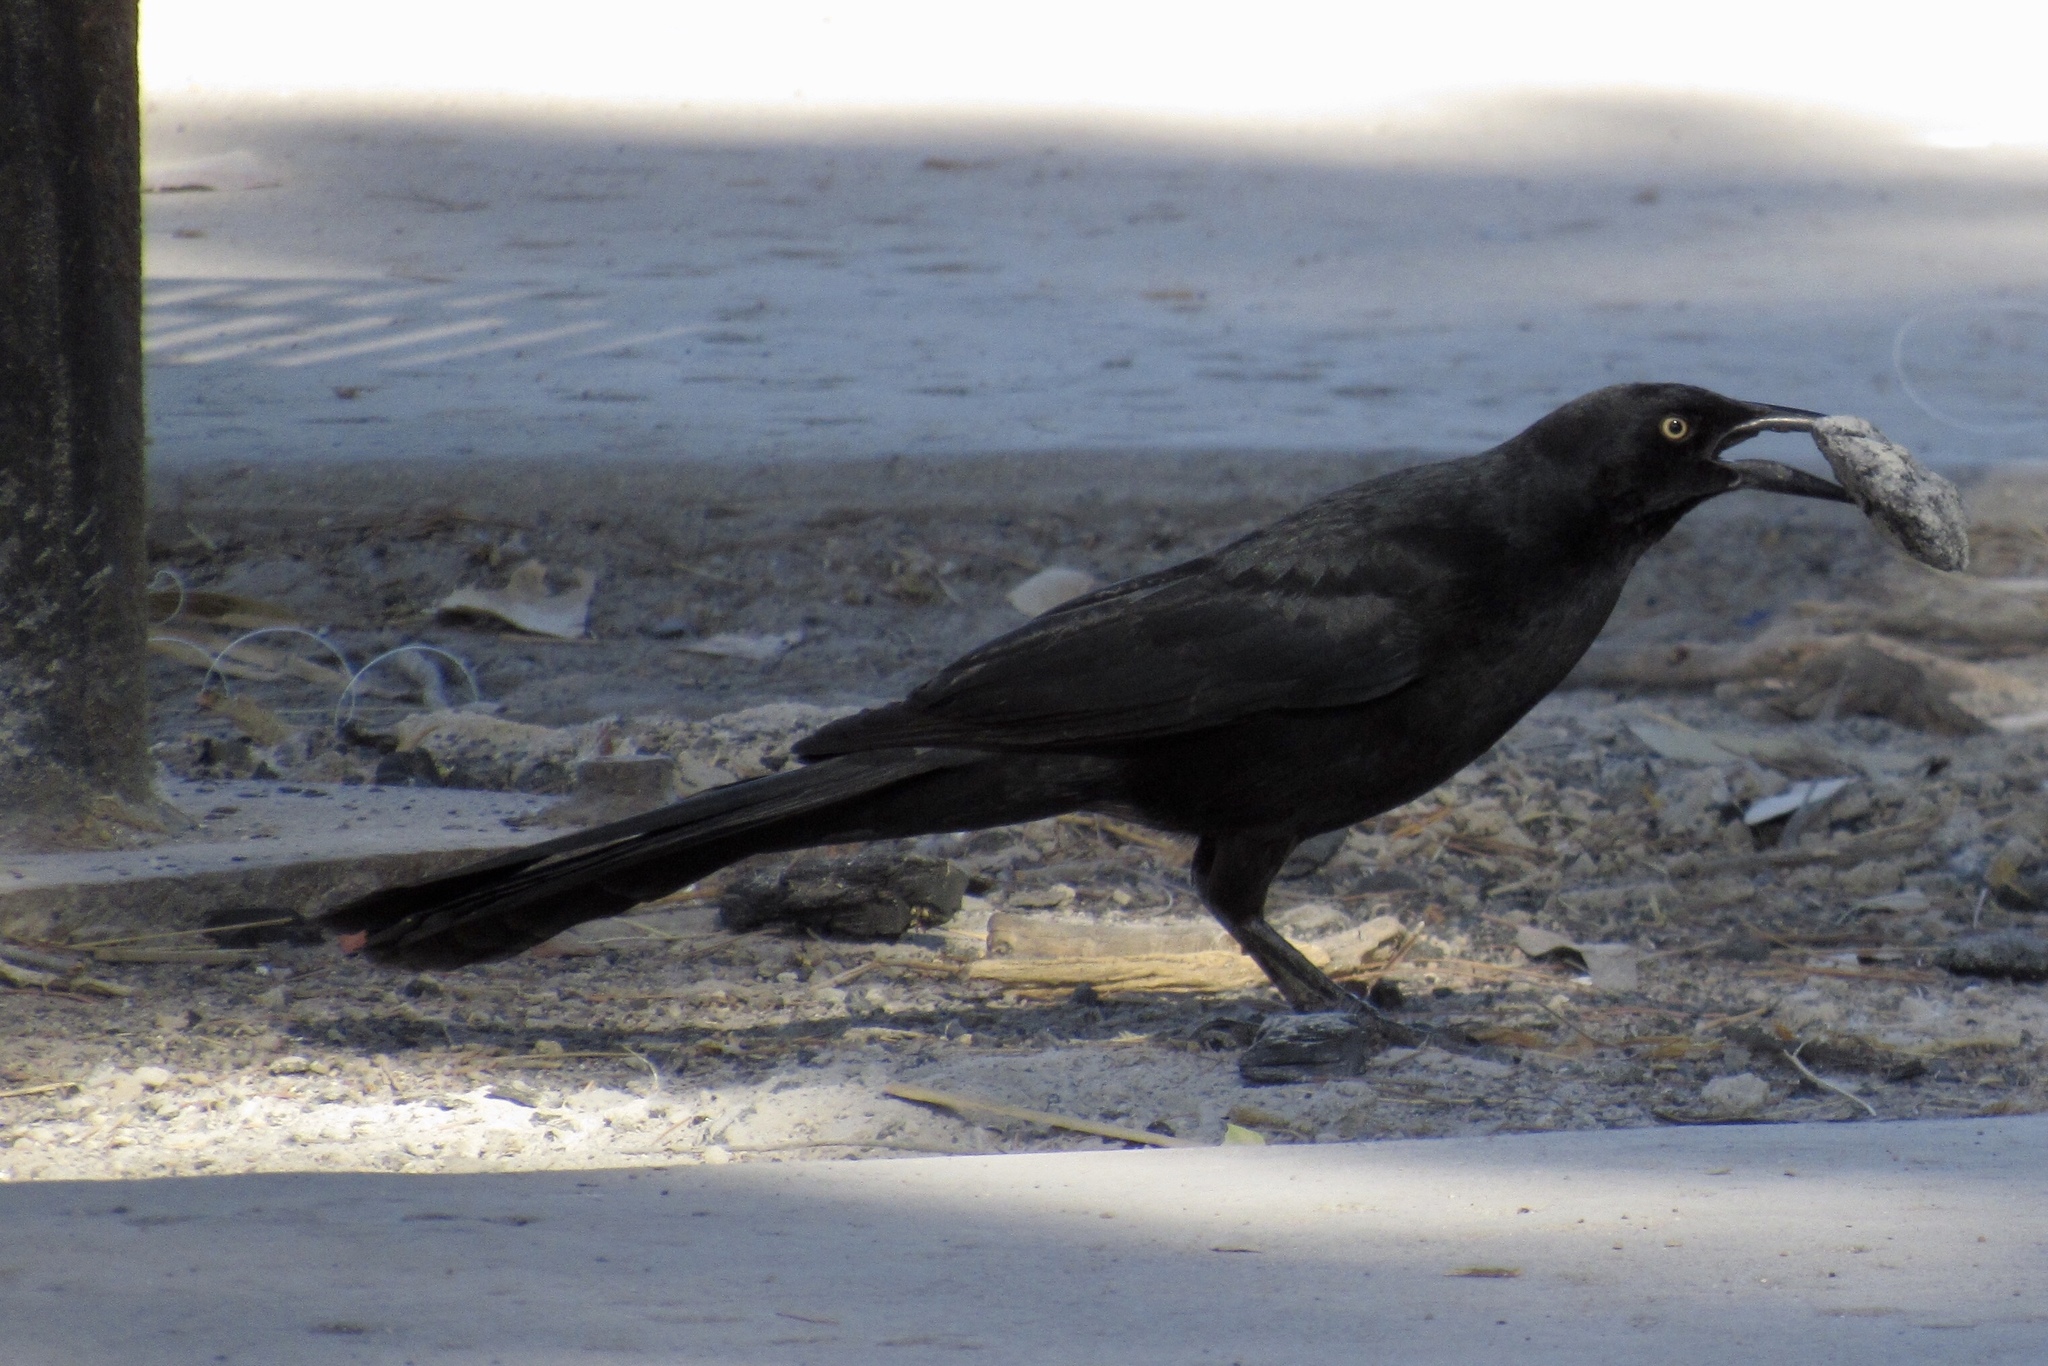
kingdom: Animalia
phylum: Chordata
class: Aves
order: Passeriformes
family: Icteridae
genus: Quiscalus
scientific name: Quiscalus mexicanus
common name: Great-tailed grackle
